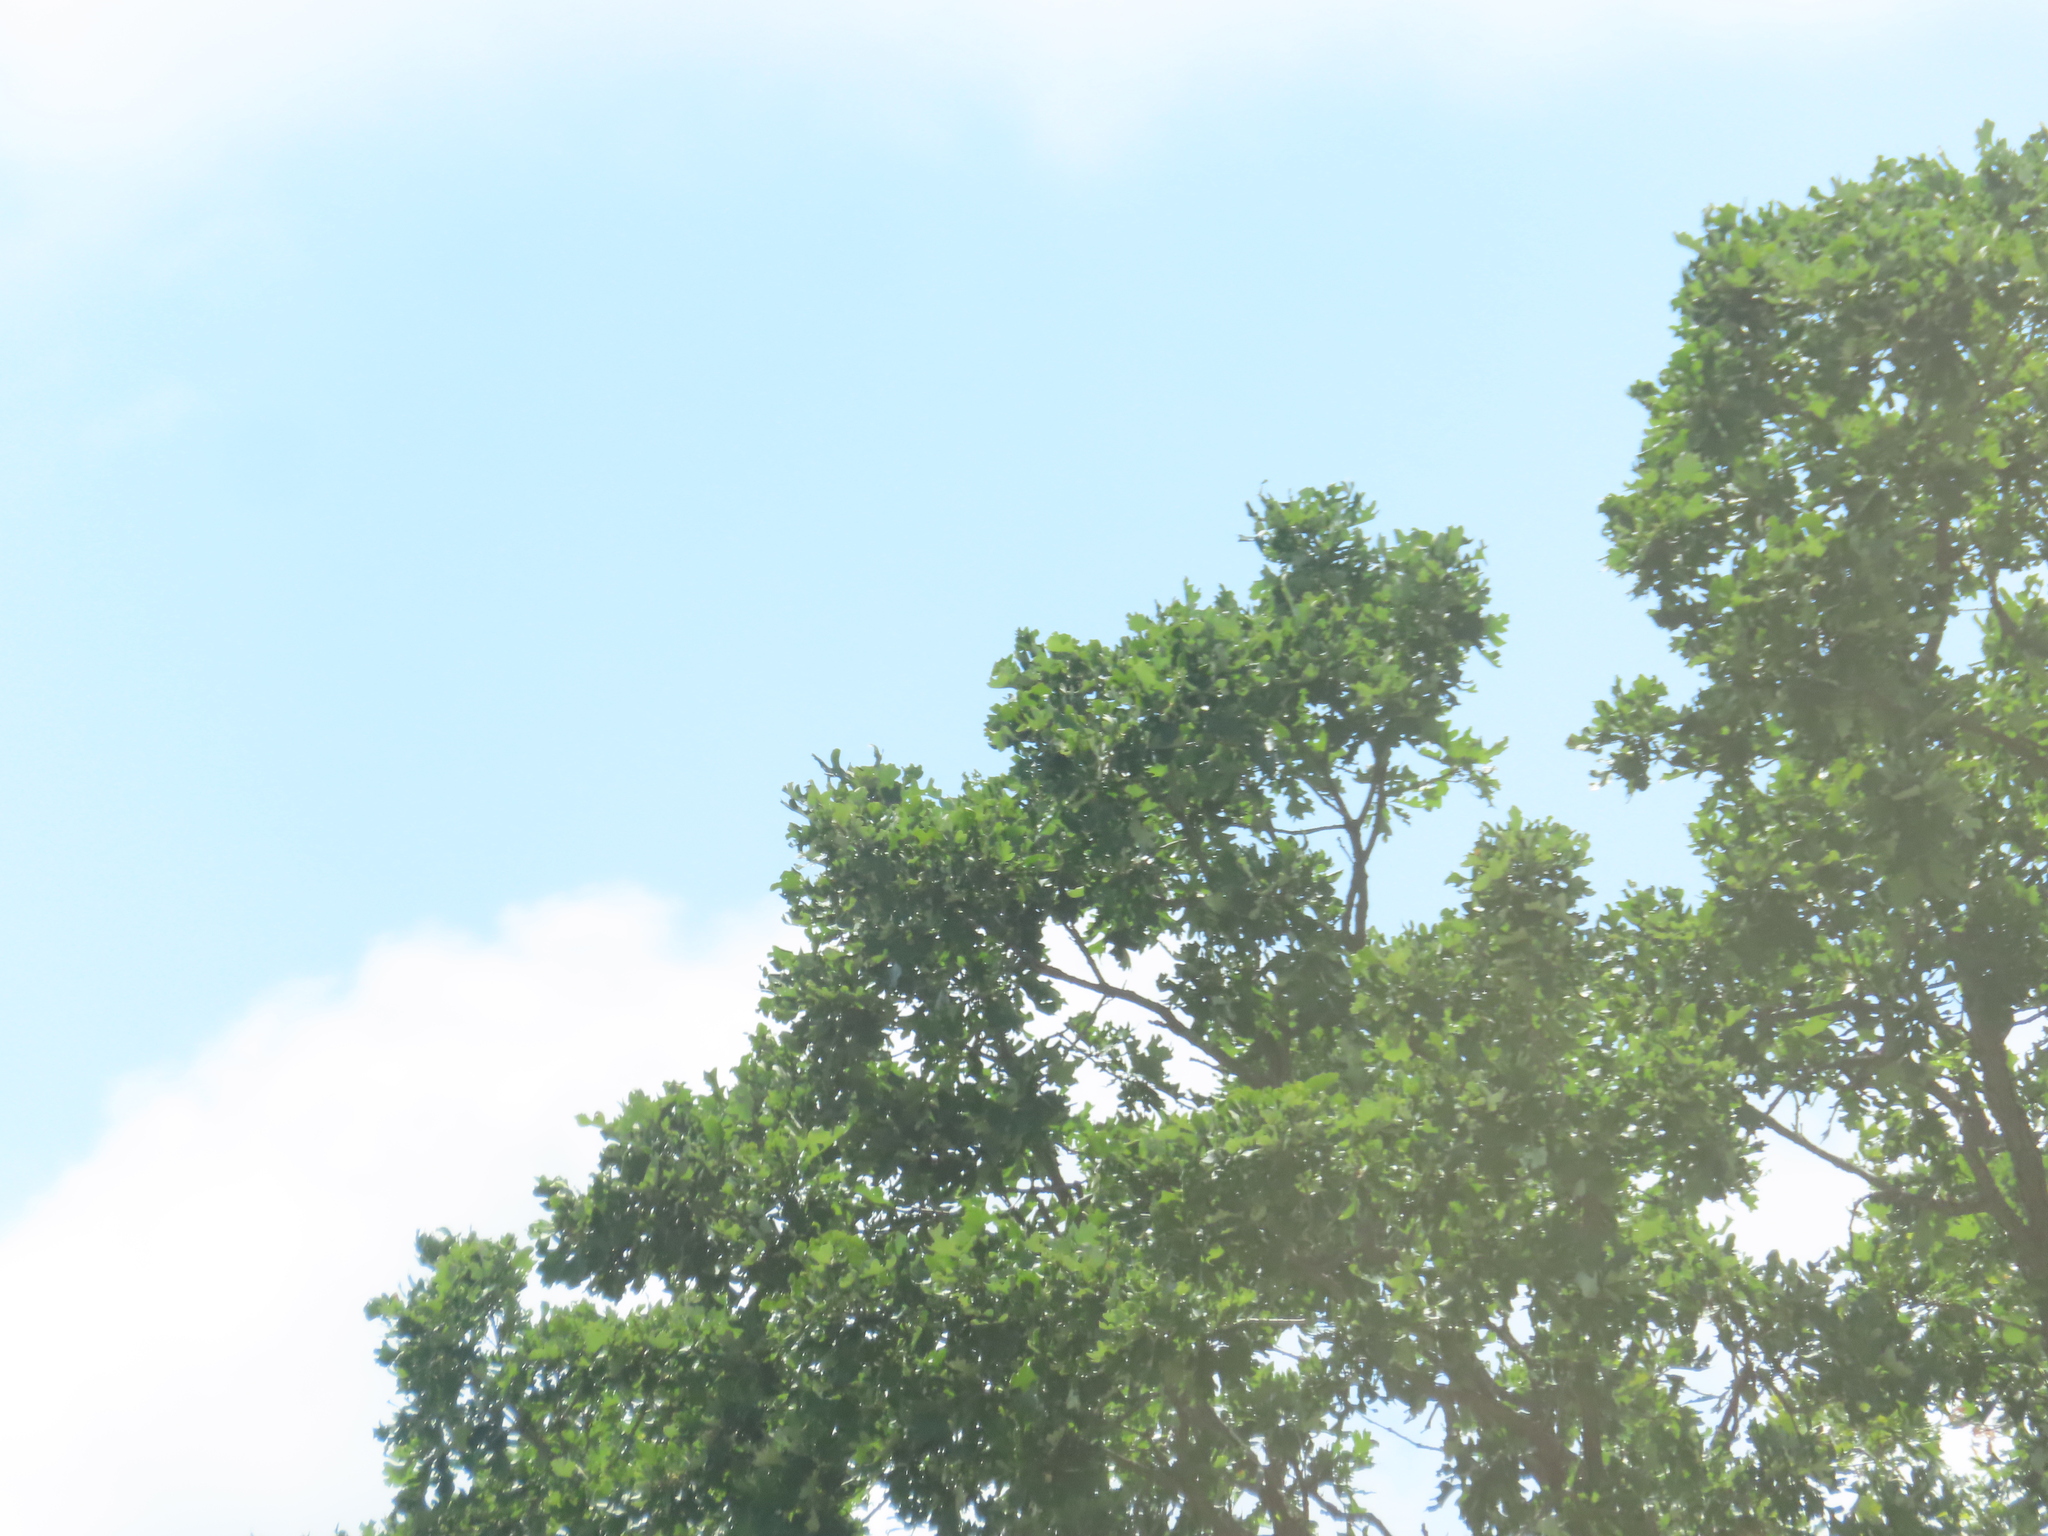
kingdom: Plantae
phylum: Tracheophyta
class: Magnoliopsida
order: Fagales
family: Fagaceae
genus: Quercus
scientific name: Quercus macrocarpa
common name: Bur oak
